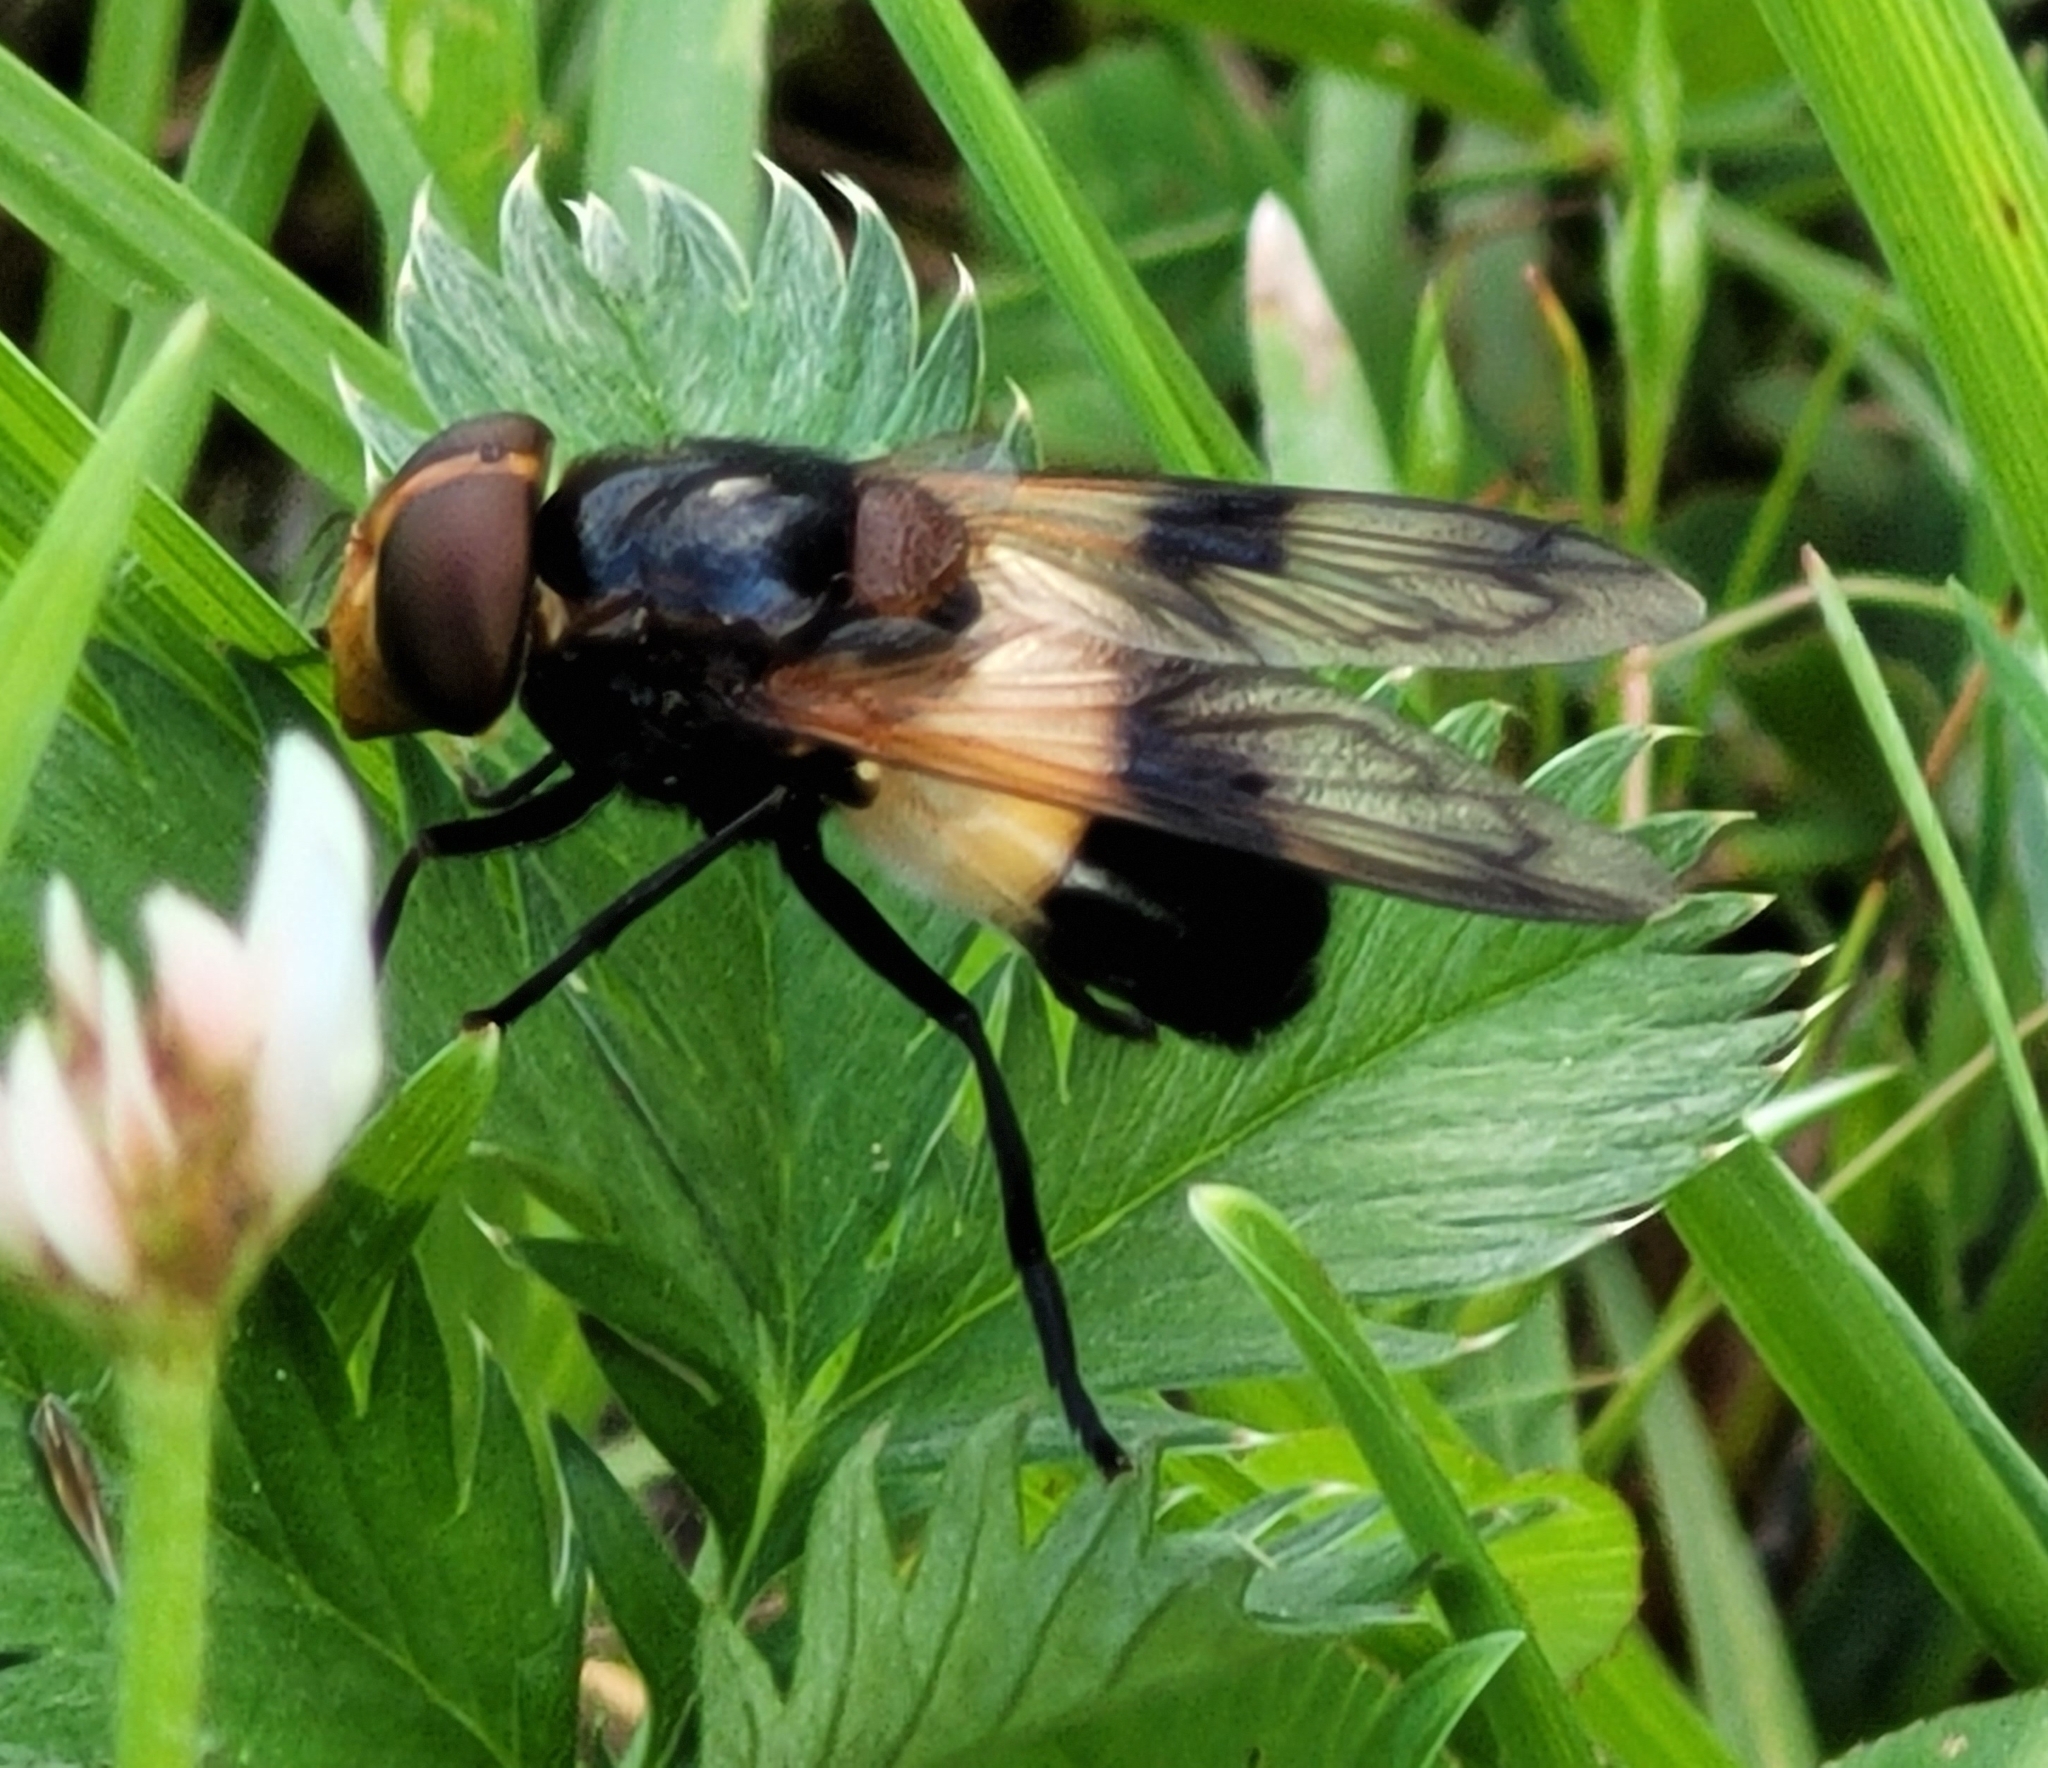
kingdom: Animalia
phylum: Arthropoda
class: Insecta
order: Diptera
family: Syrphidae
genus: Volucella
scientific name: Volucella pellucens
